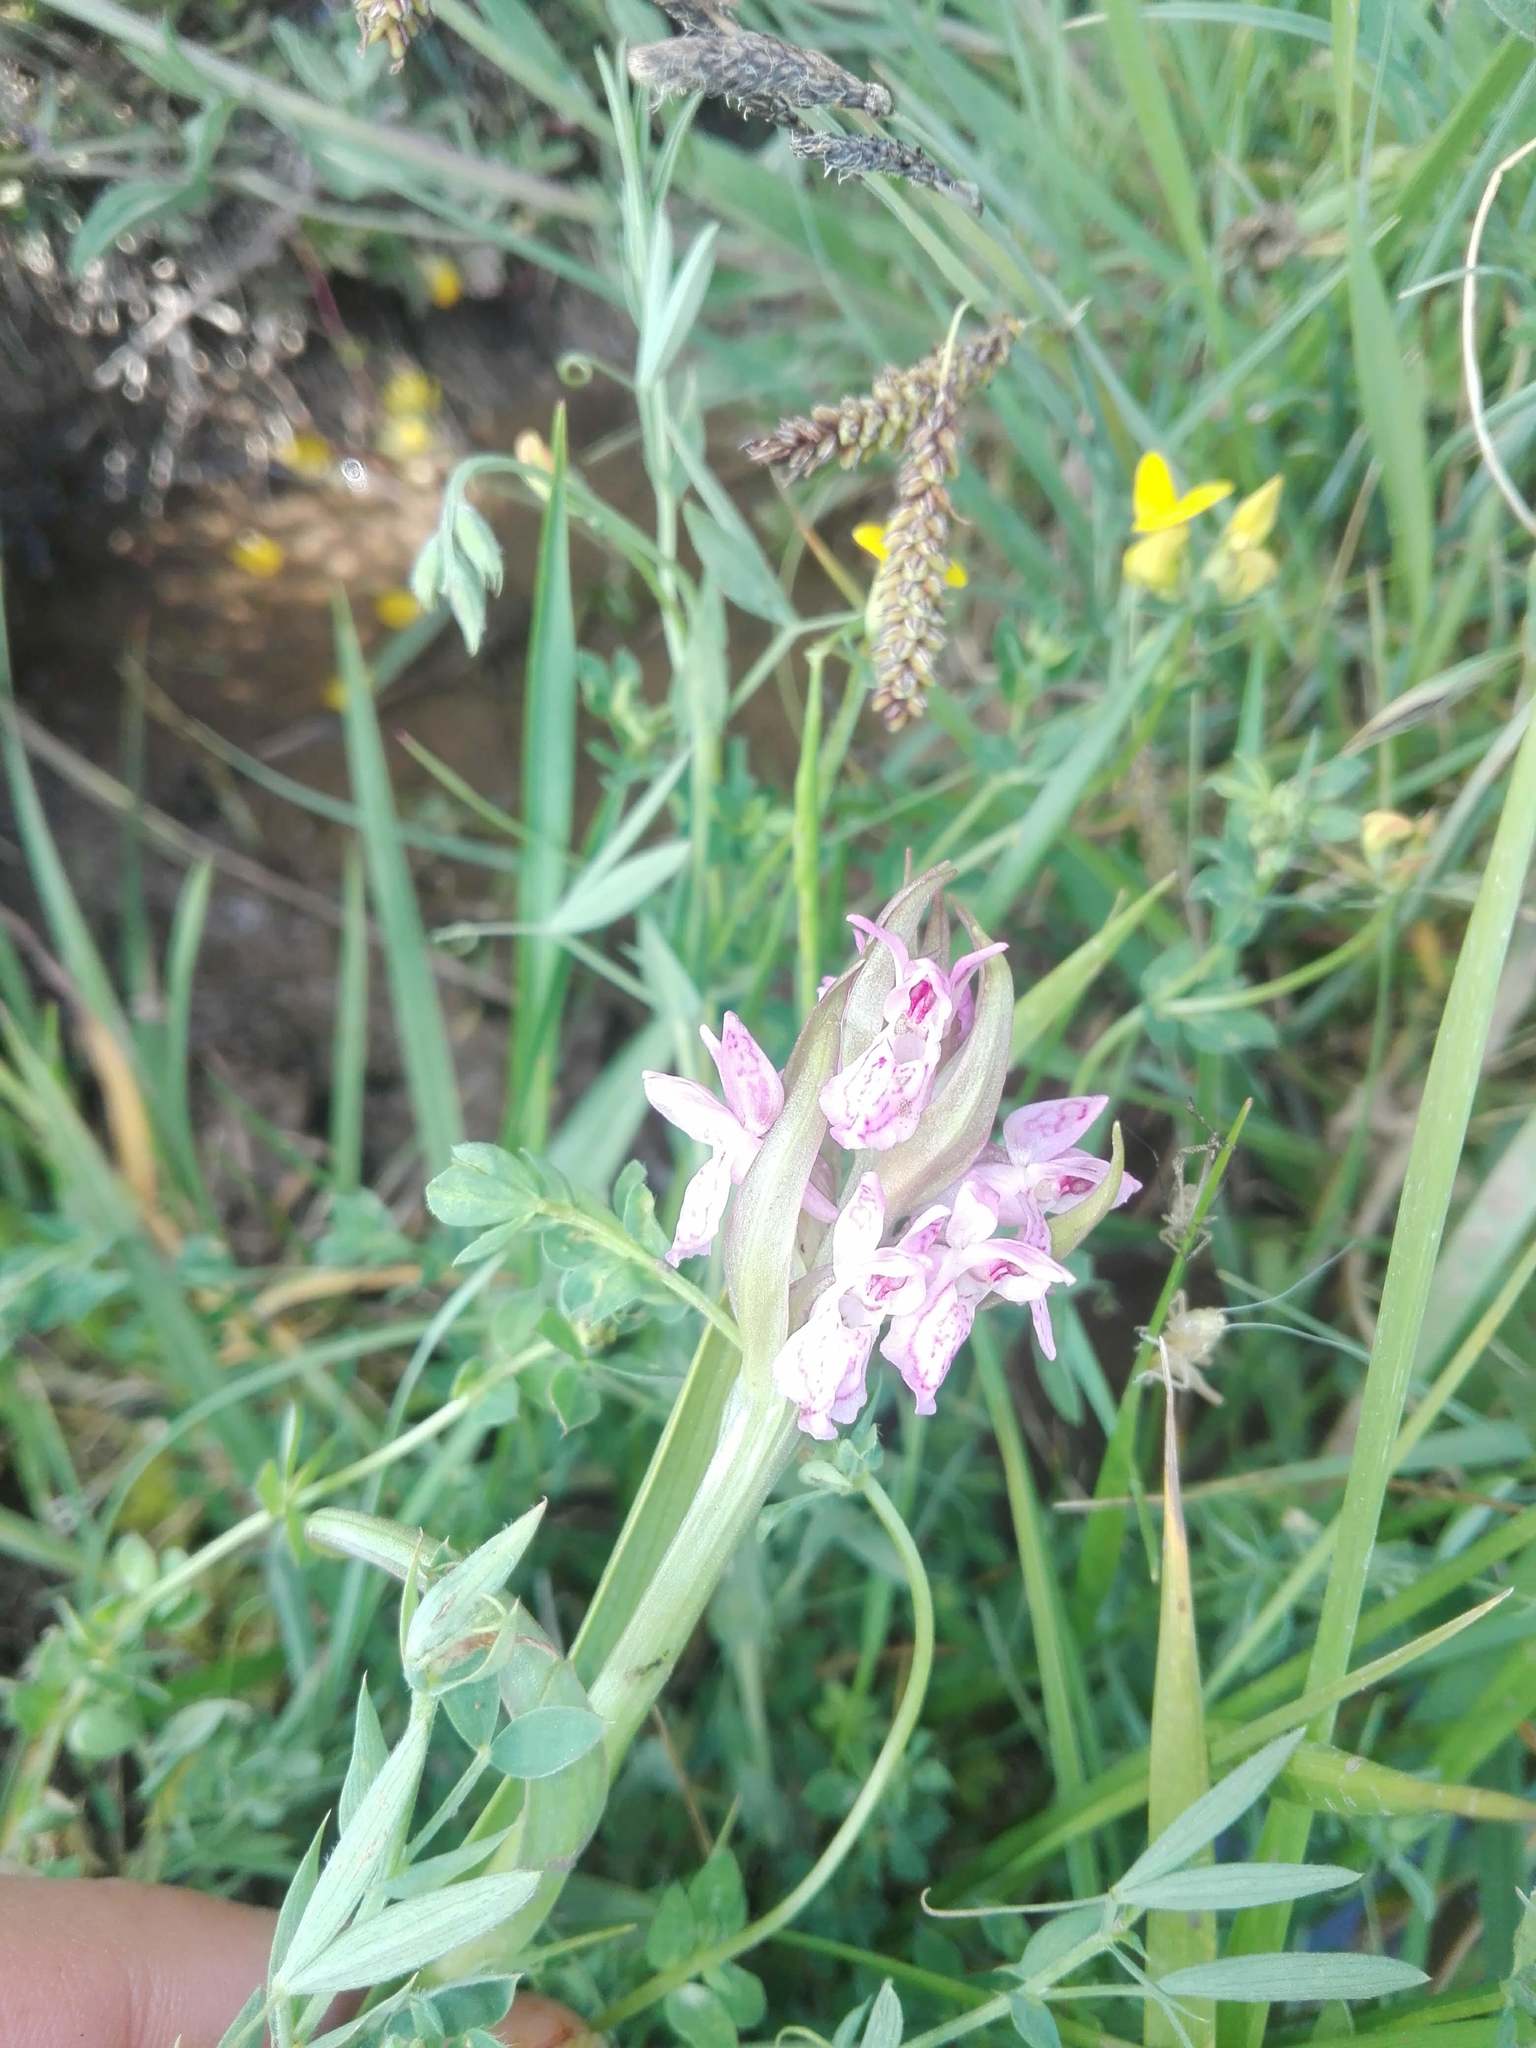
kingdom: Plantae
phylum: Tracheophyta
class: Liliopsida
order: Asparagales
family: Orchidaceae
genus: Dactylorhiza
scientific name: Dactylorhiza incarnata
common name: Early marsh-orchid
